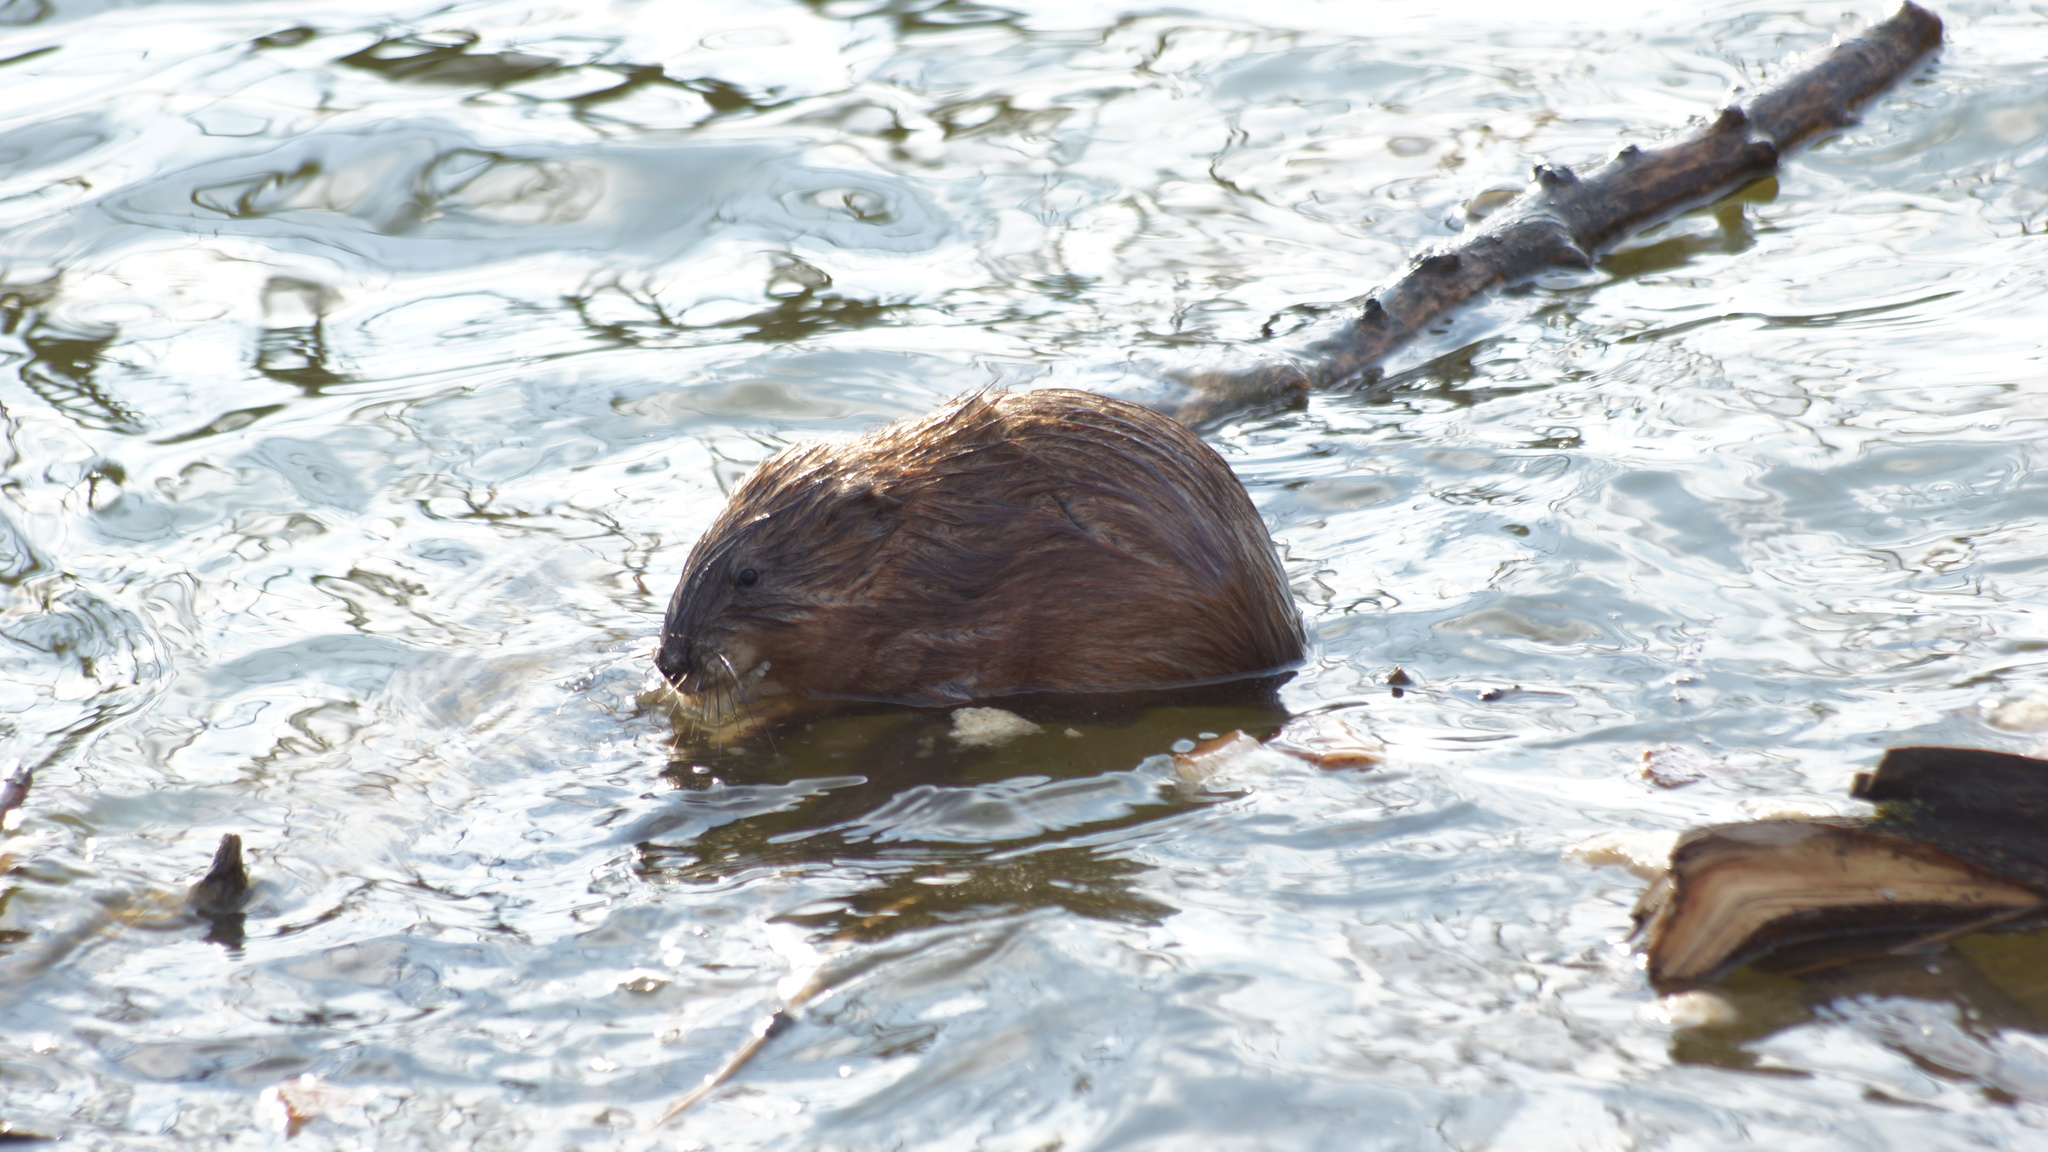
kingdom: Animalia
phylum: Chordata
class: Mammalia
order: Rodentia
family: Cricetidae
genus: Ondatra
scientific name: Ondatra zibethicus
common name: Muskrat
